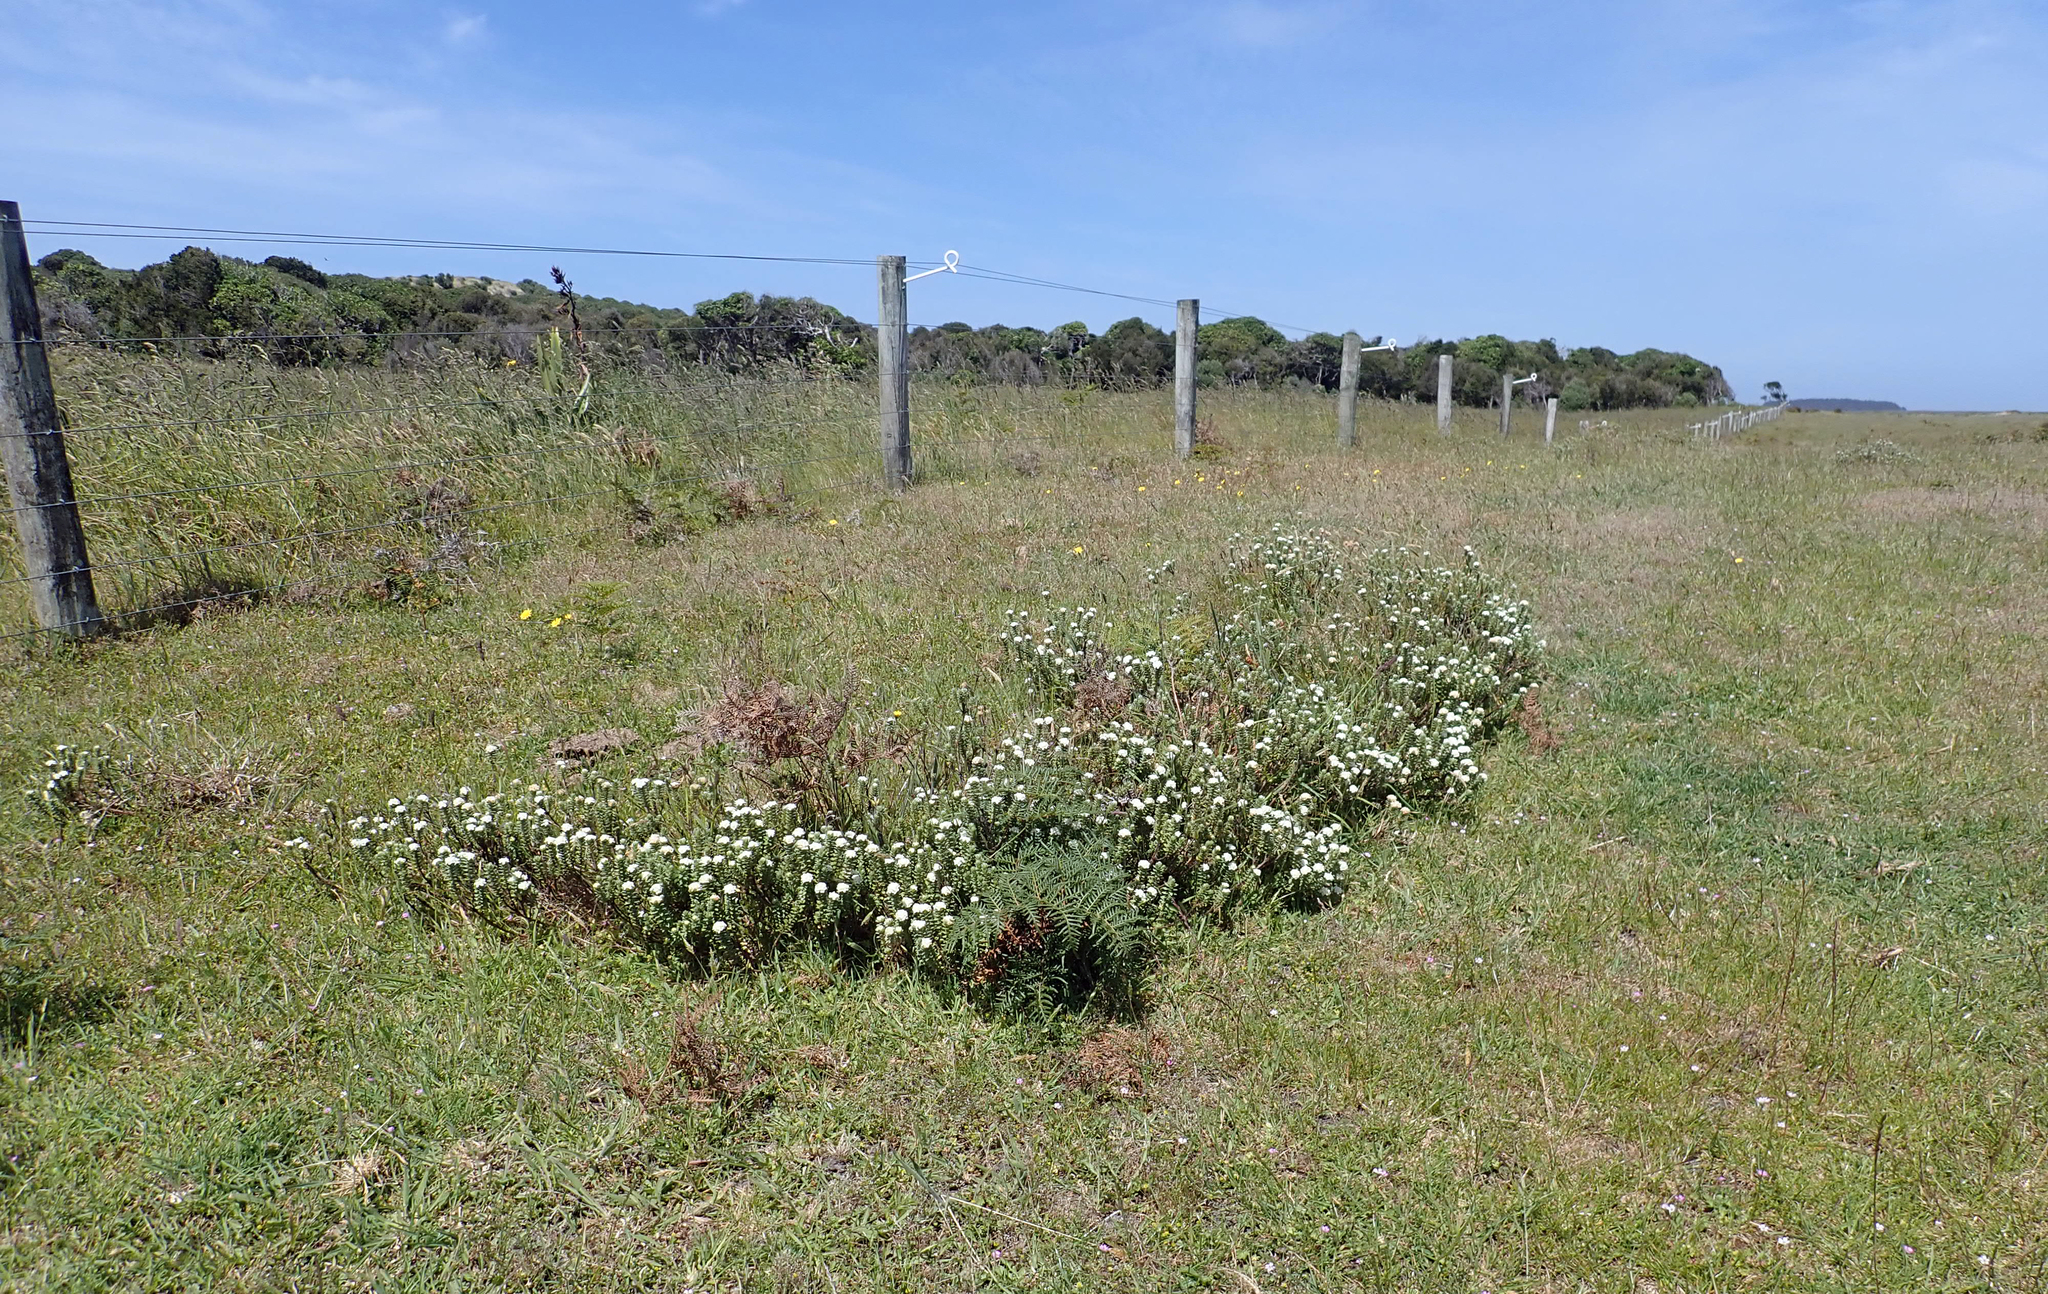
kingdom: Plantae
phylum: Tracheophyta
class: Magnoliopsida
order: Malvales
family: Thymelaeaceae
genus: Pimelea
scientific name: Pimelea villosa
